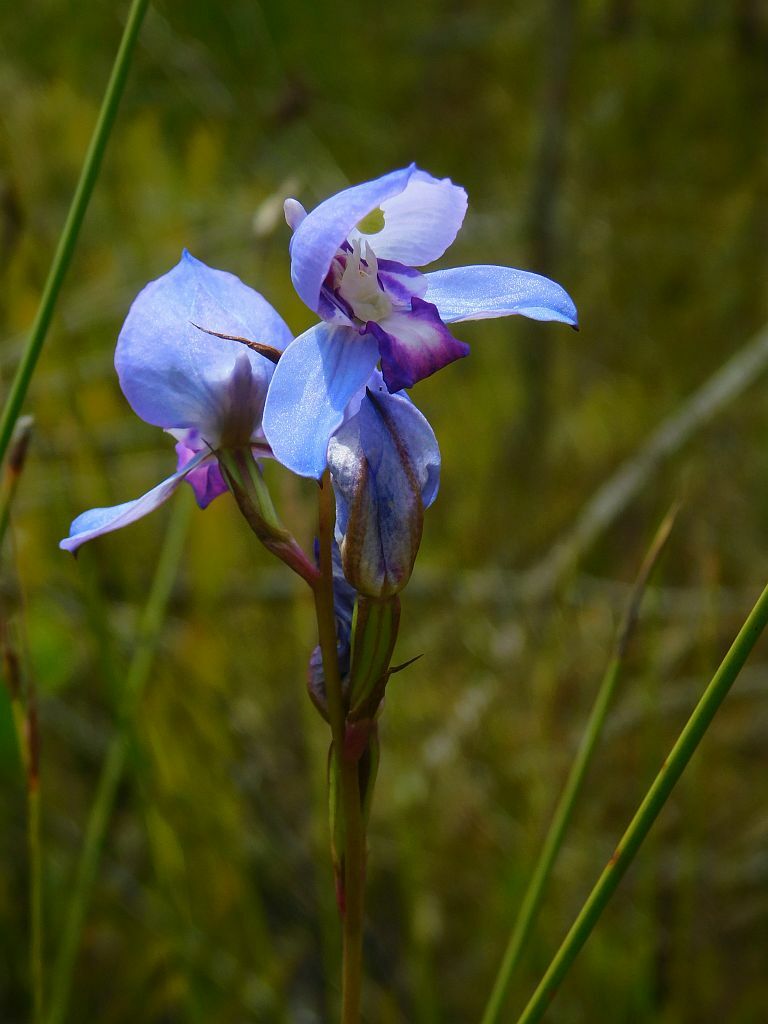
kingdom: Plantae
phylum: Tracheophyta
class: Liliopsida
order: Asparagales
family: Orchidaceae
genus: Disa
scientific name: Disa graminifolia
